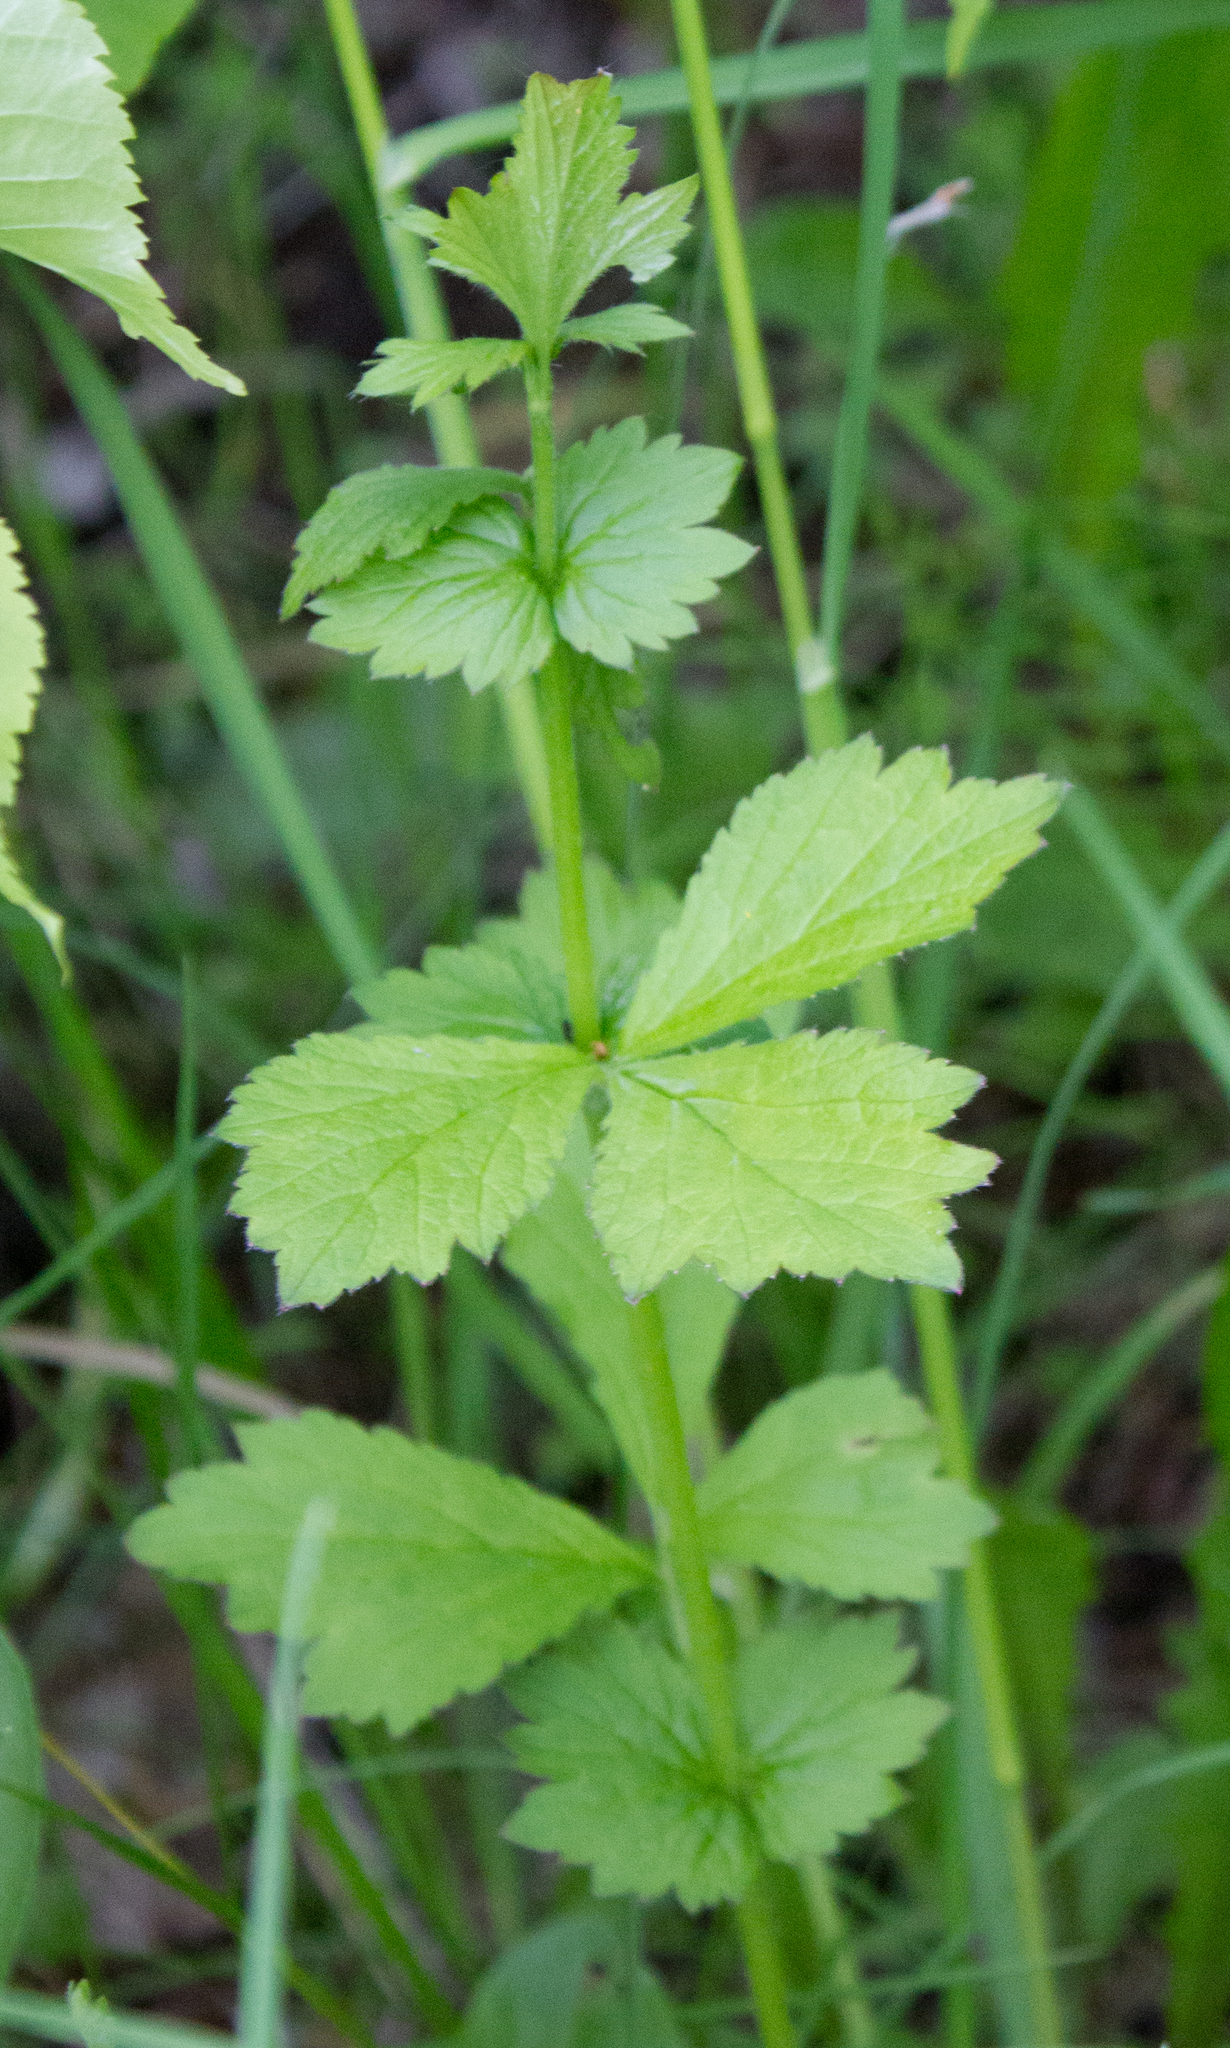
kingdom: Plantae
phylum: Tracheophyta
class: Magnoliopsida
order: Rosales
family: Rosaceae
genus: Geum
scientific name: Geum urbanum
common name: Wood avens
